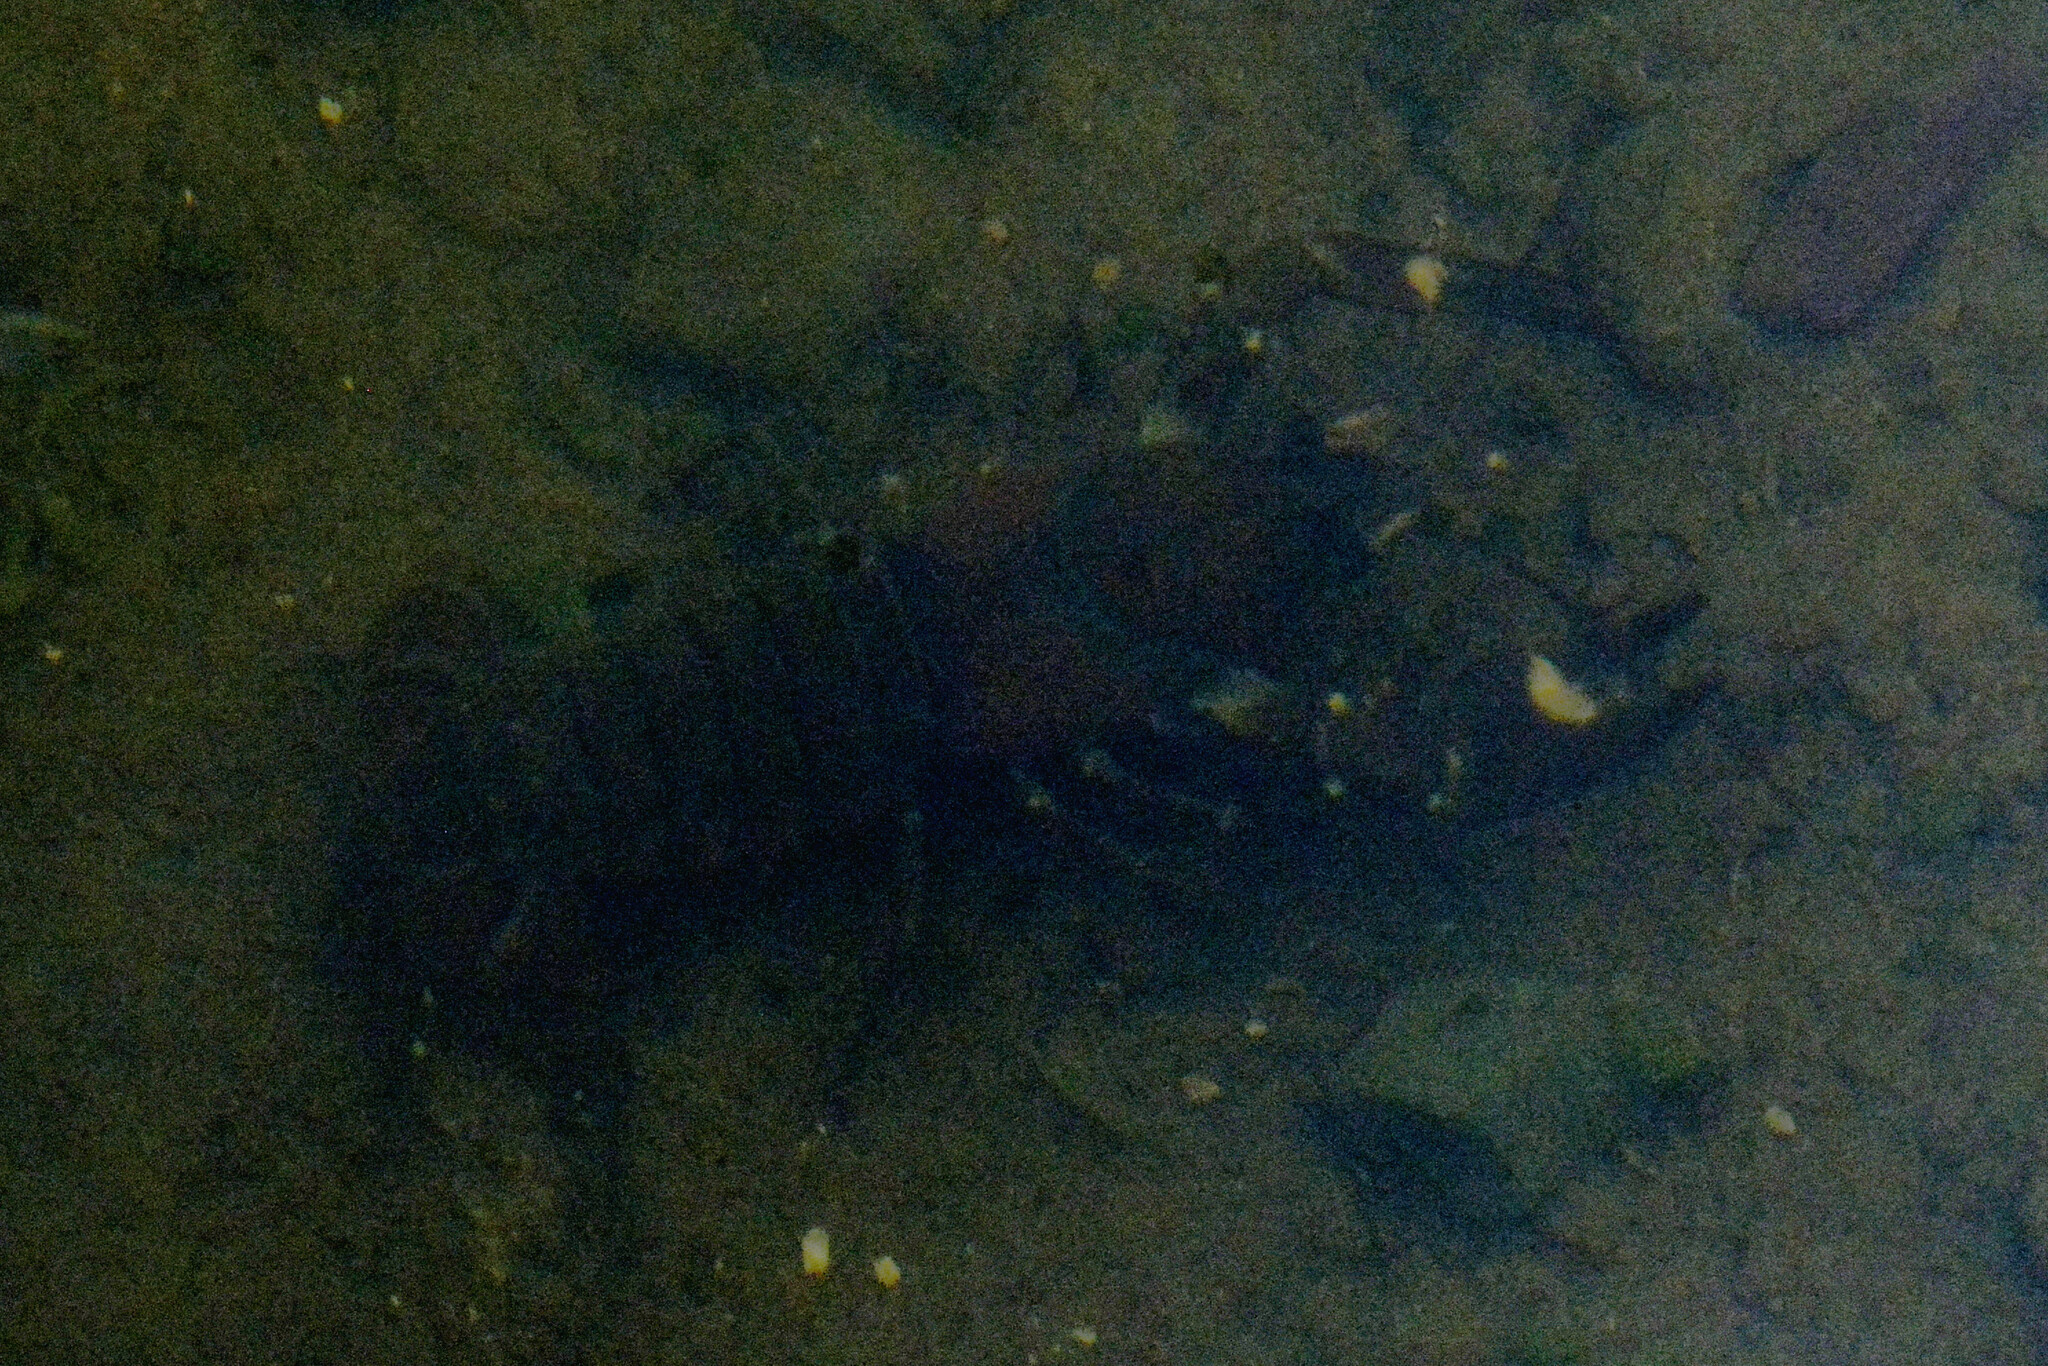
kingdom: Animalia
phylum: Arthropoda
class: Malacostraca
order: Decapoda
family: Astacidae
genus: Pacifastacus
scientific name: Pacifastacus leniusculus
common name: Signal crayfish
